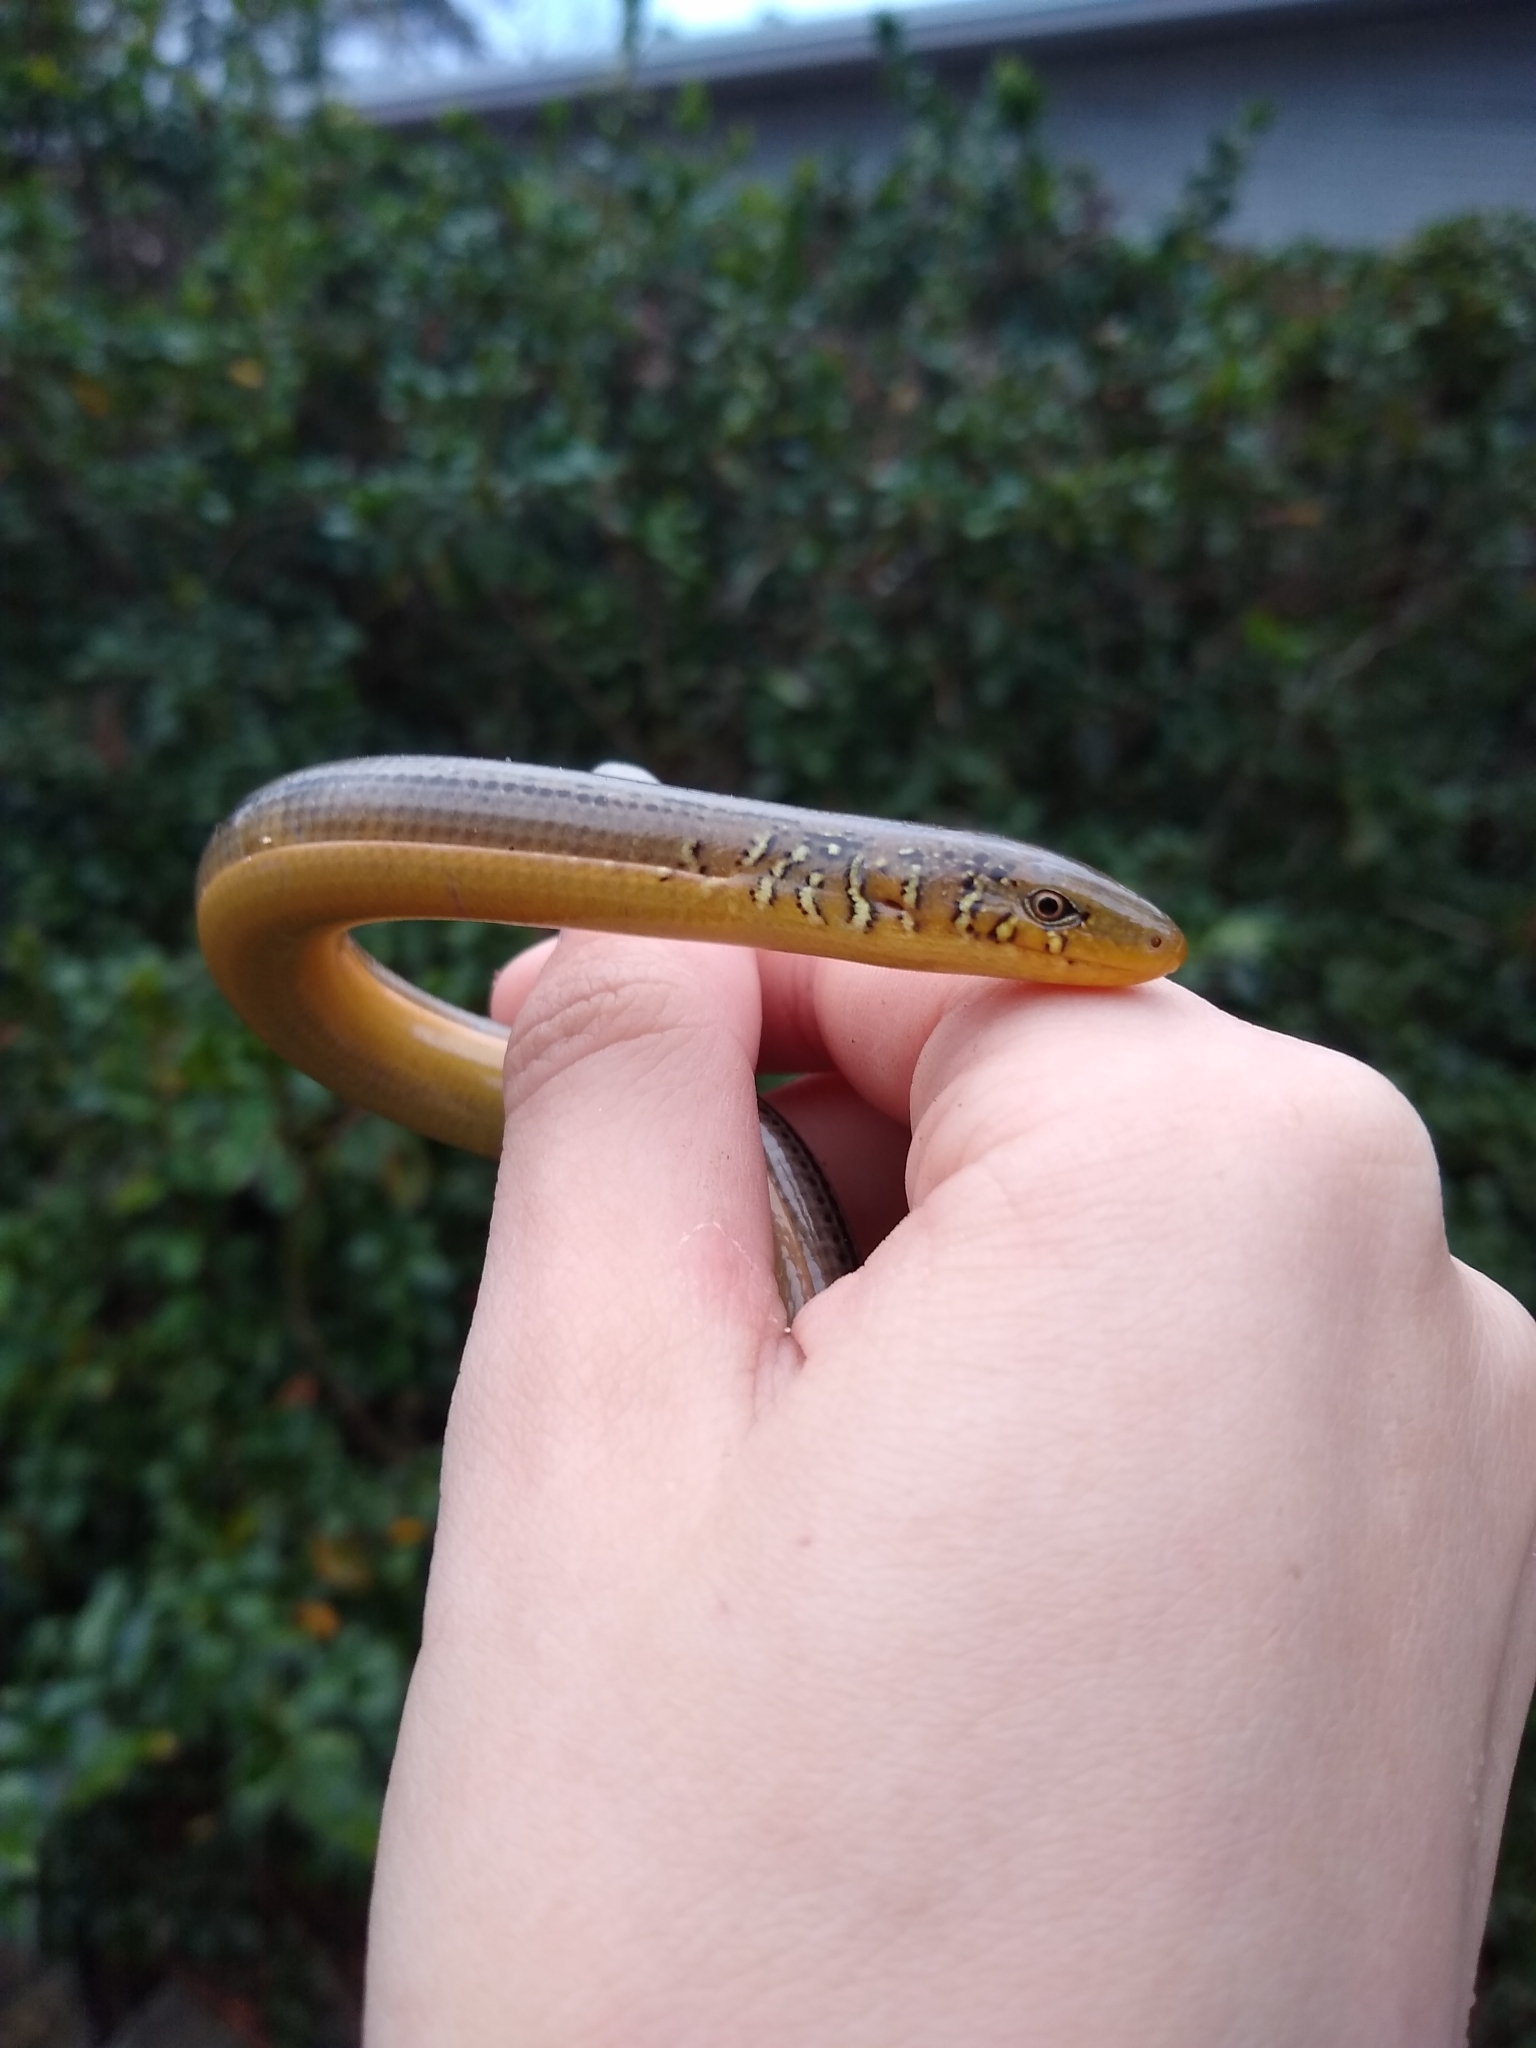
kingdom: Animalia
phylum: Chordata
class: Squamata
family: Anguidae
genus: Ophisaurus
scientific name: Ophisaurus ventralis
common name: Eastern glass lizard
